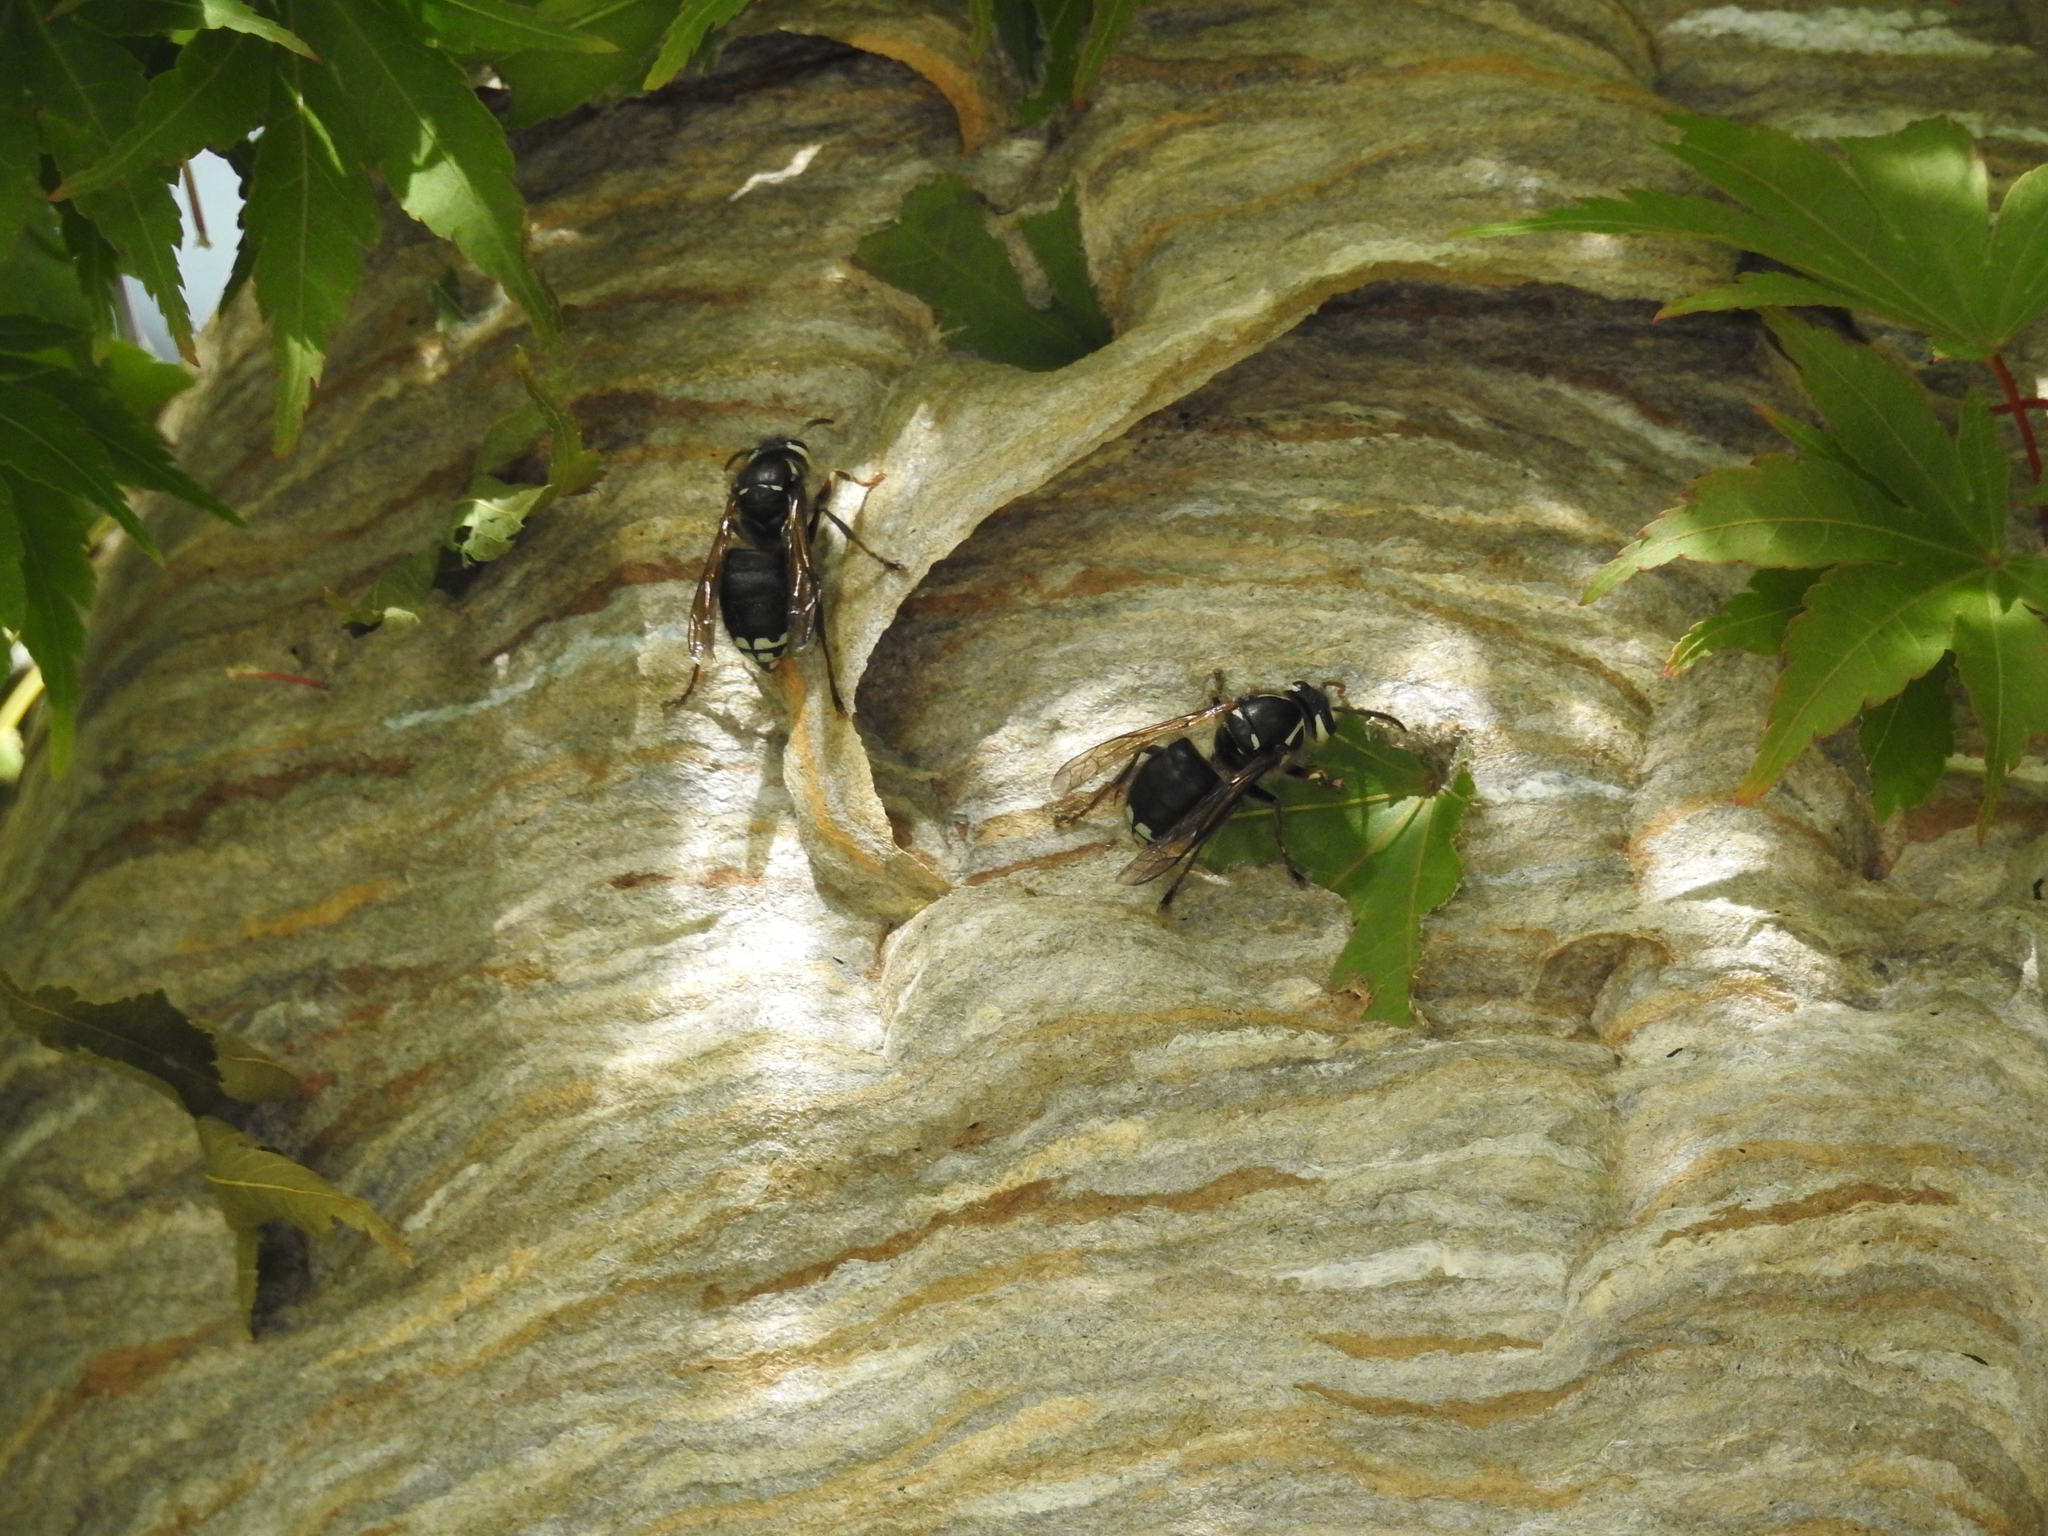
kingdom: Animalia
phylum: Arthropoda
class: Insecta
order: Hymenoptera
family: Vespidae
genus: Dolichovespula
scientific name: Dolichovespula maculata
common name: Bald-faced hornet
